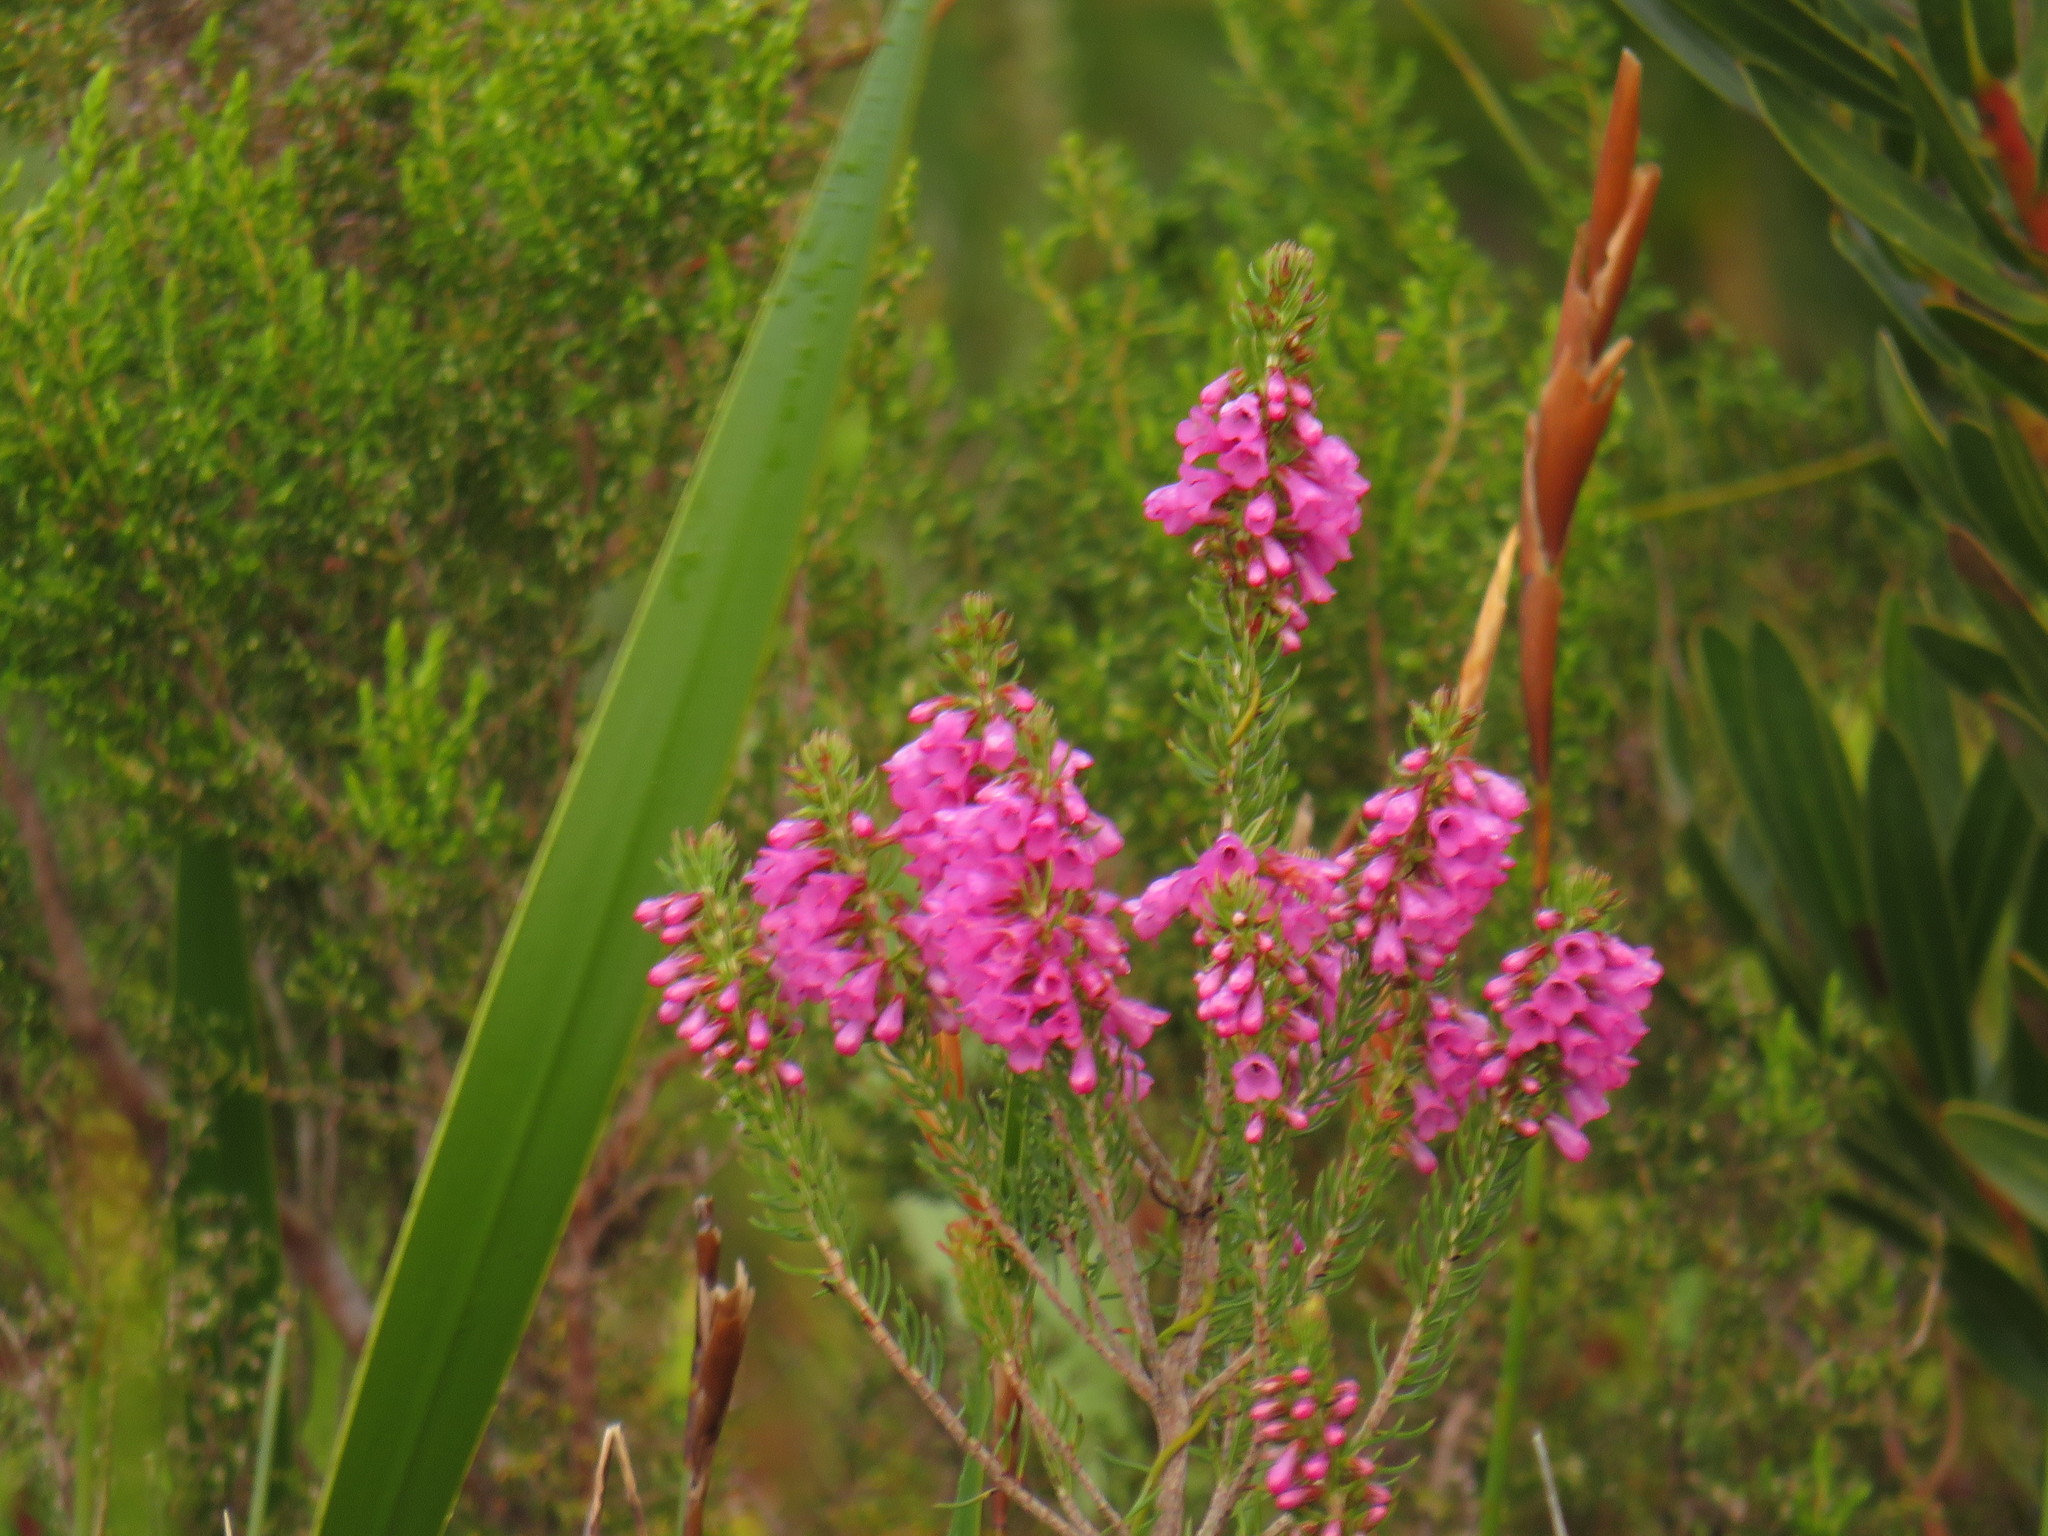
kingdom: Plantae
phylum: Tracheophyta
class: Magnoliopsida
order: Ericales
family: Ericaceae
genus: Erica
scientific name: Erica abietina
